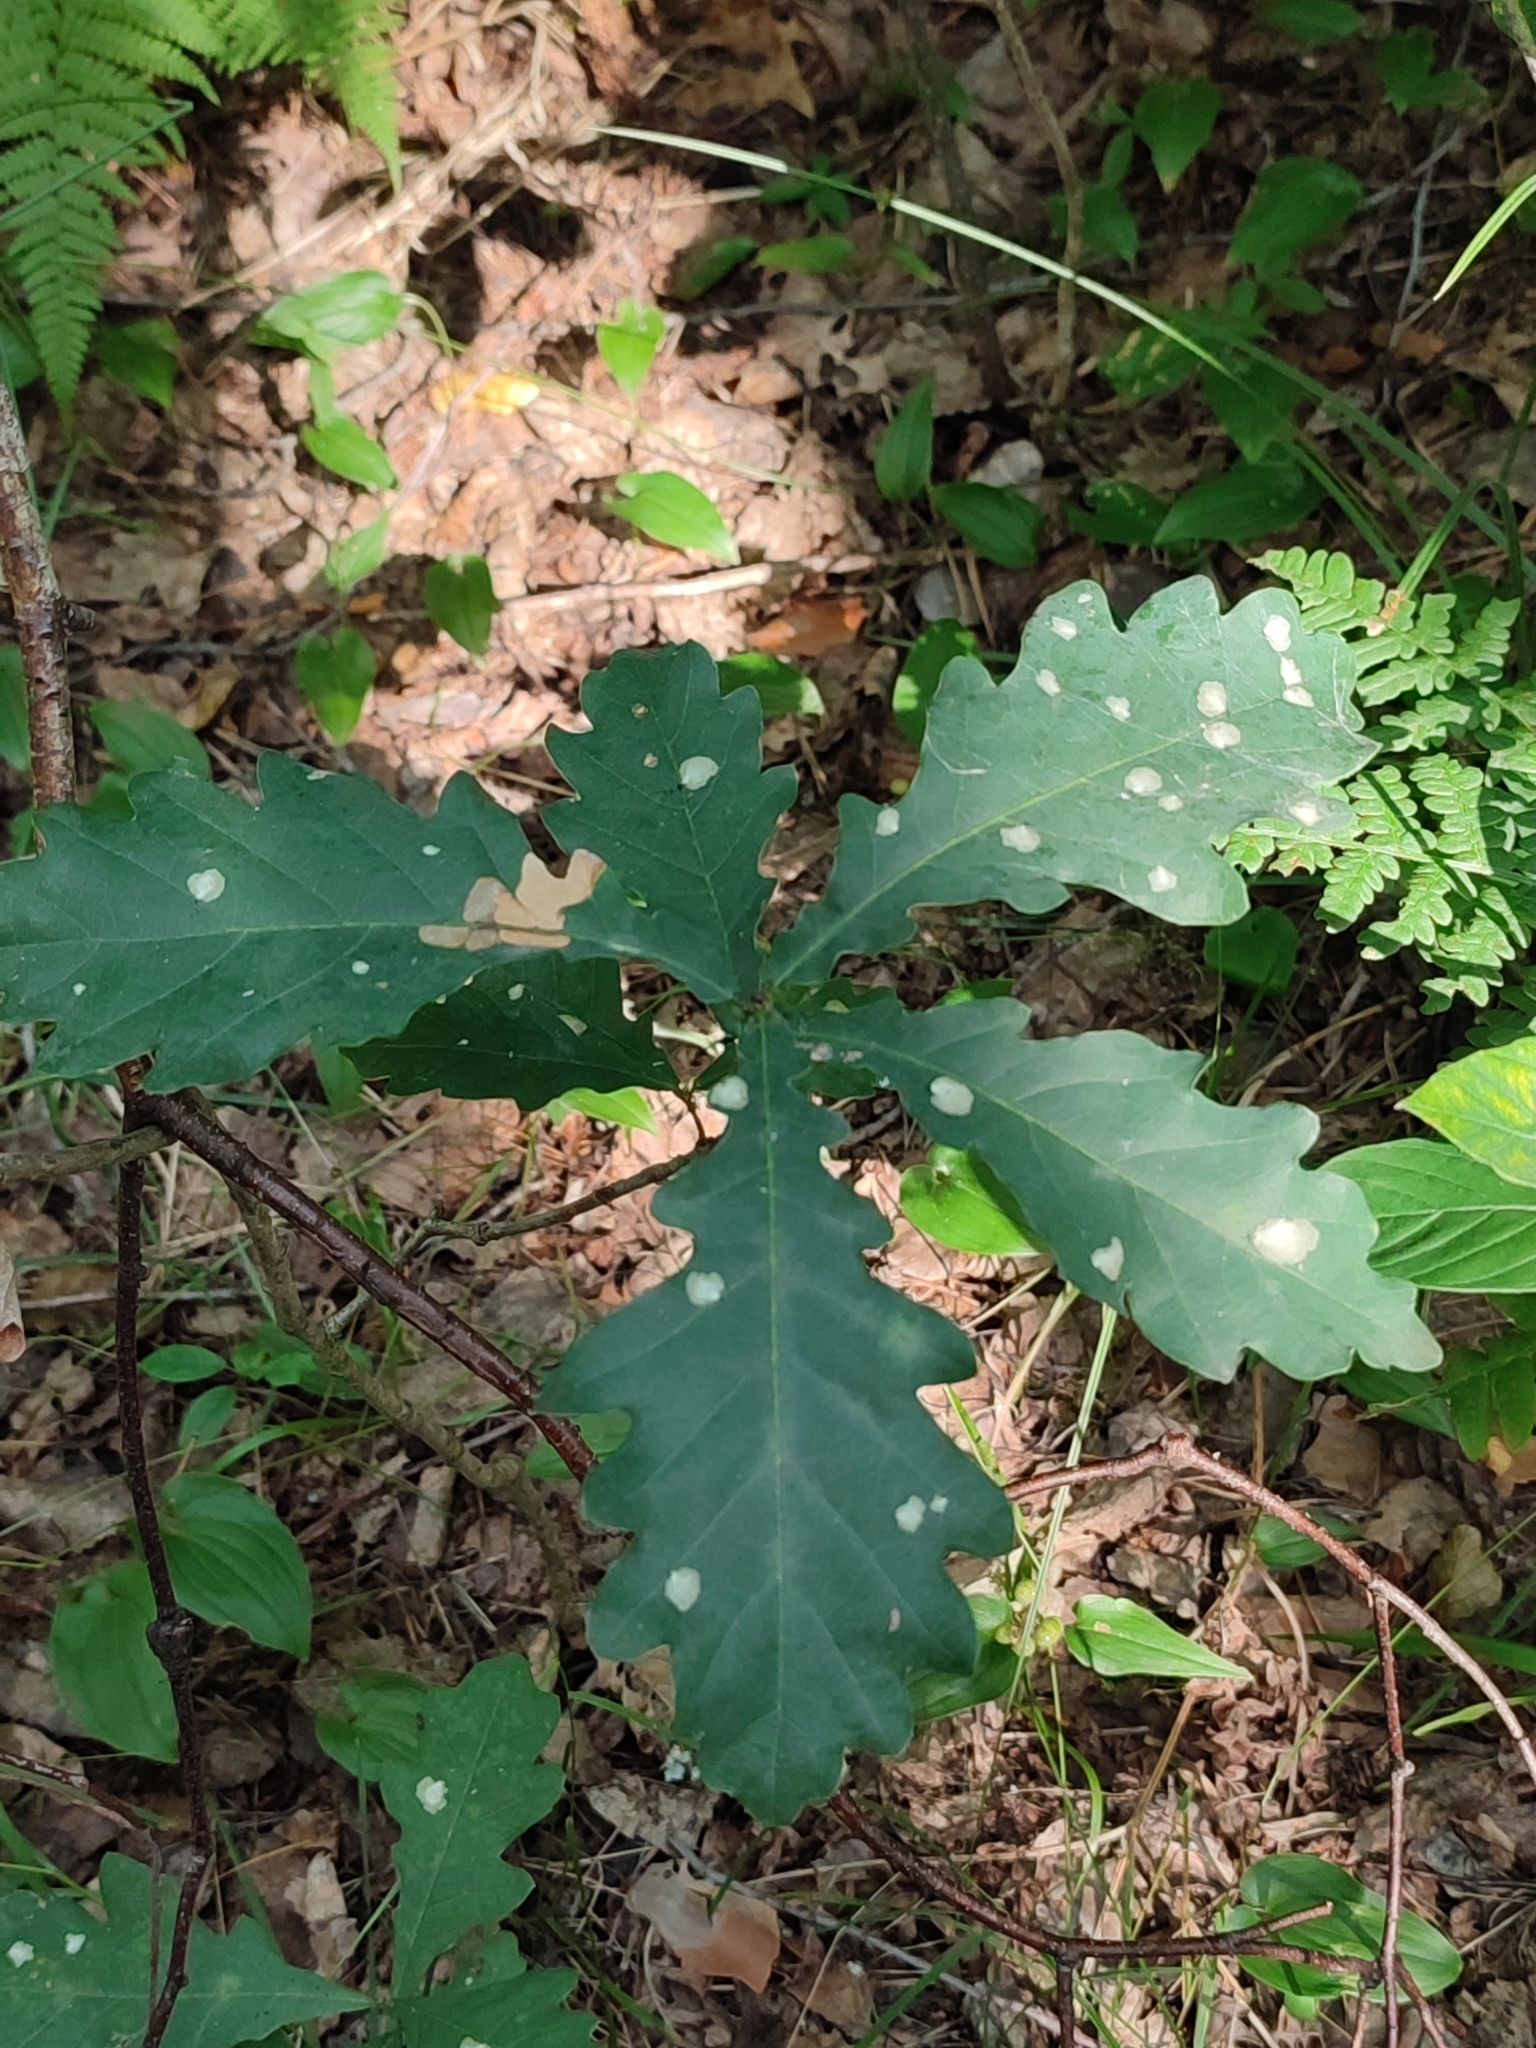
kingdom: Plantae
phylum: Tracheophyta
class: Magnoliopsida
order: Fagales
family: Fagaceae
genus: Quercus
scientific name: Quercus robur
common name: Pedunculate oak
